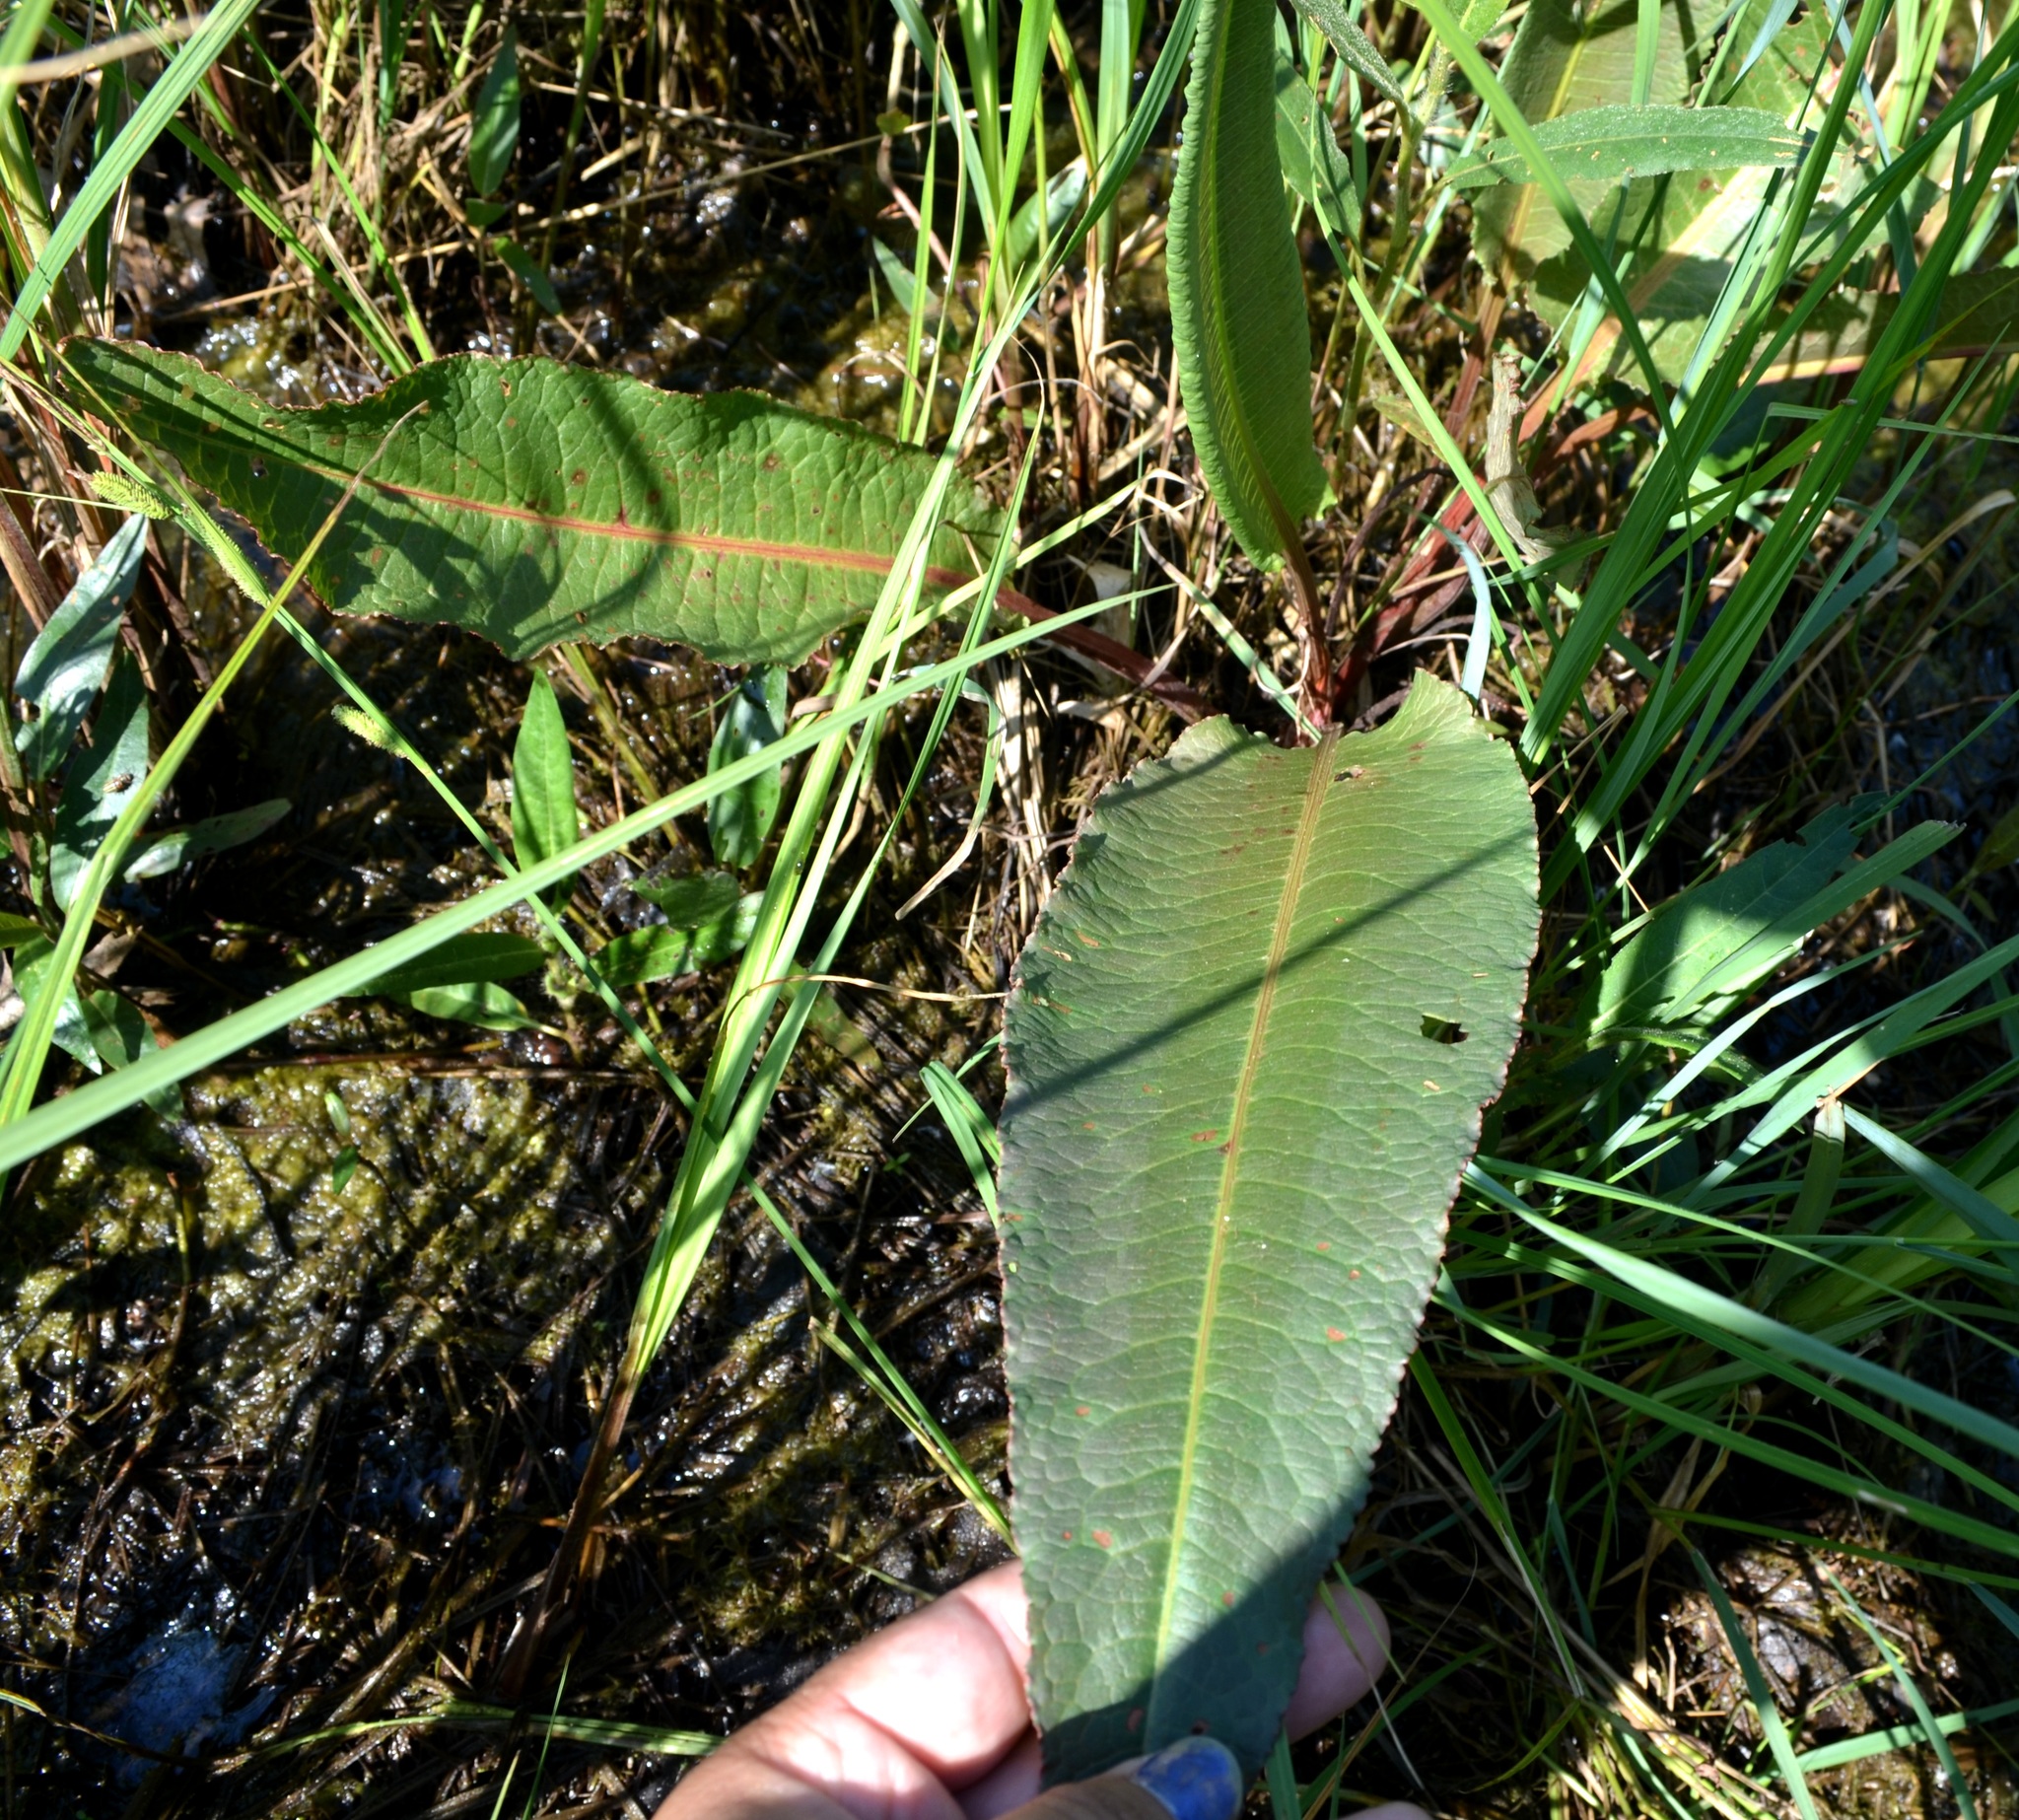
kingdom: Plantae
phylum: Tracheophyta
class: Magnoliopsida
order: Caryophyllales
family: Polygonaceae
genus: Rumex
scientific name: Rumex britannica
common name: British dock
